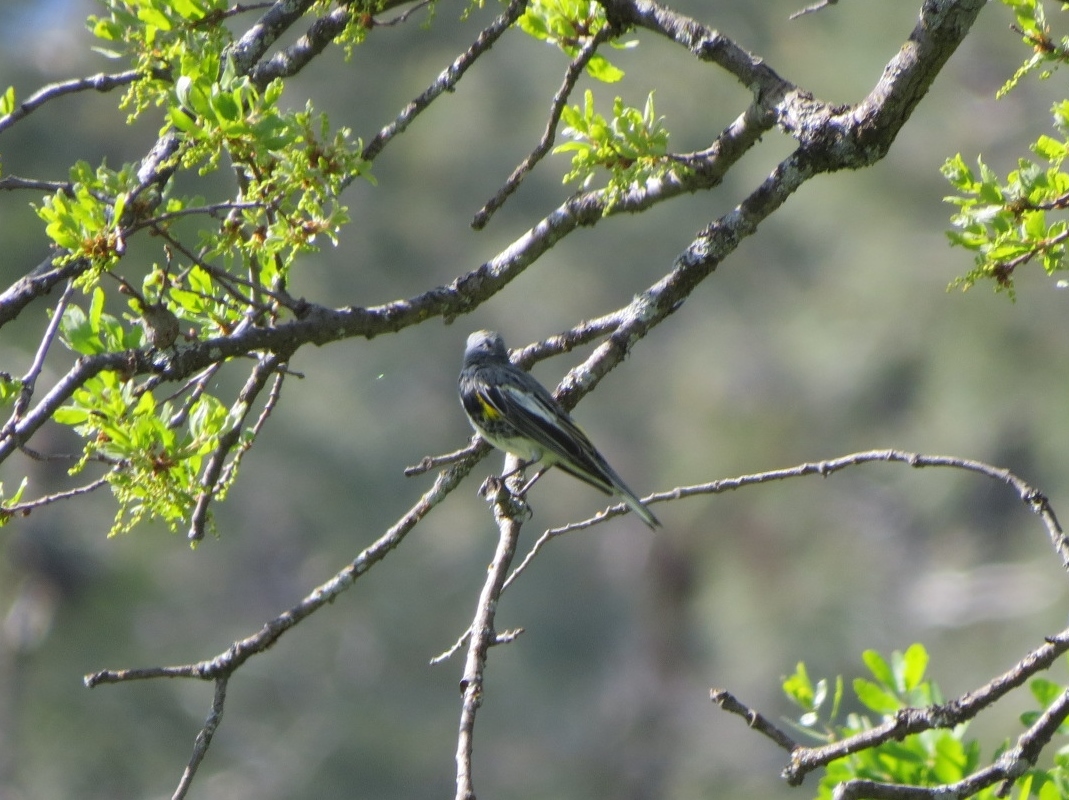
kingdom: Animalia
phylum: Chordata
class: Aves
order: Passeriformes
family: Parulidae
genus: Setophaga
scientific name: Setophaga coronata
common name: Myrtle warbler
